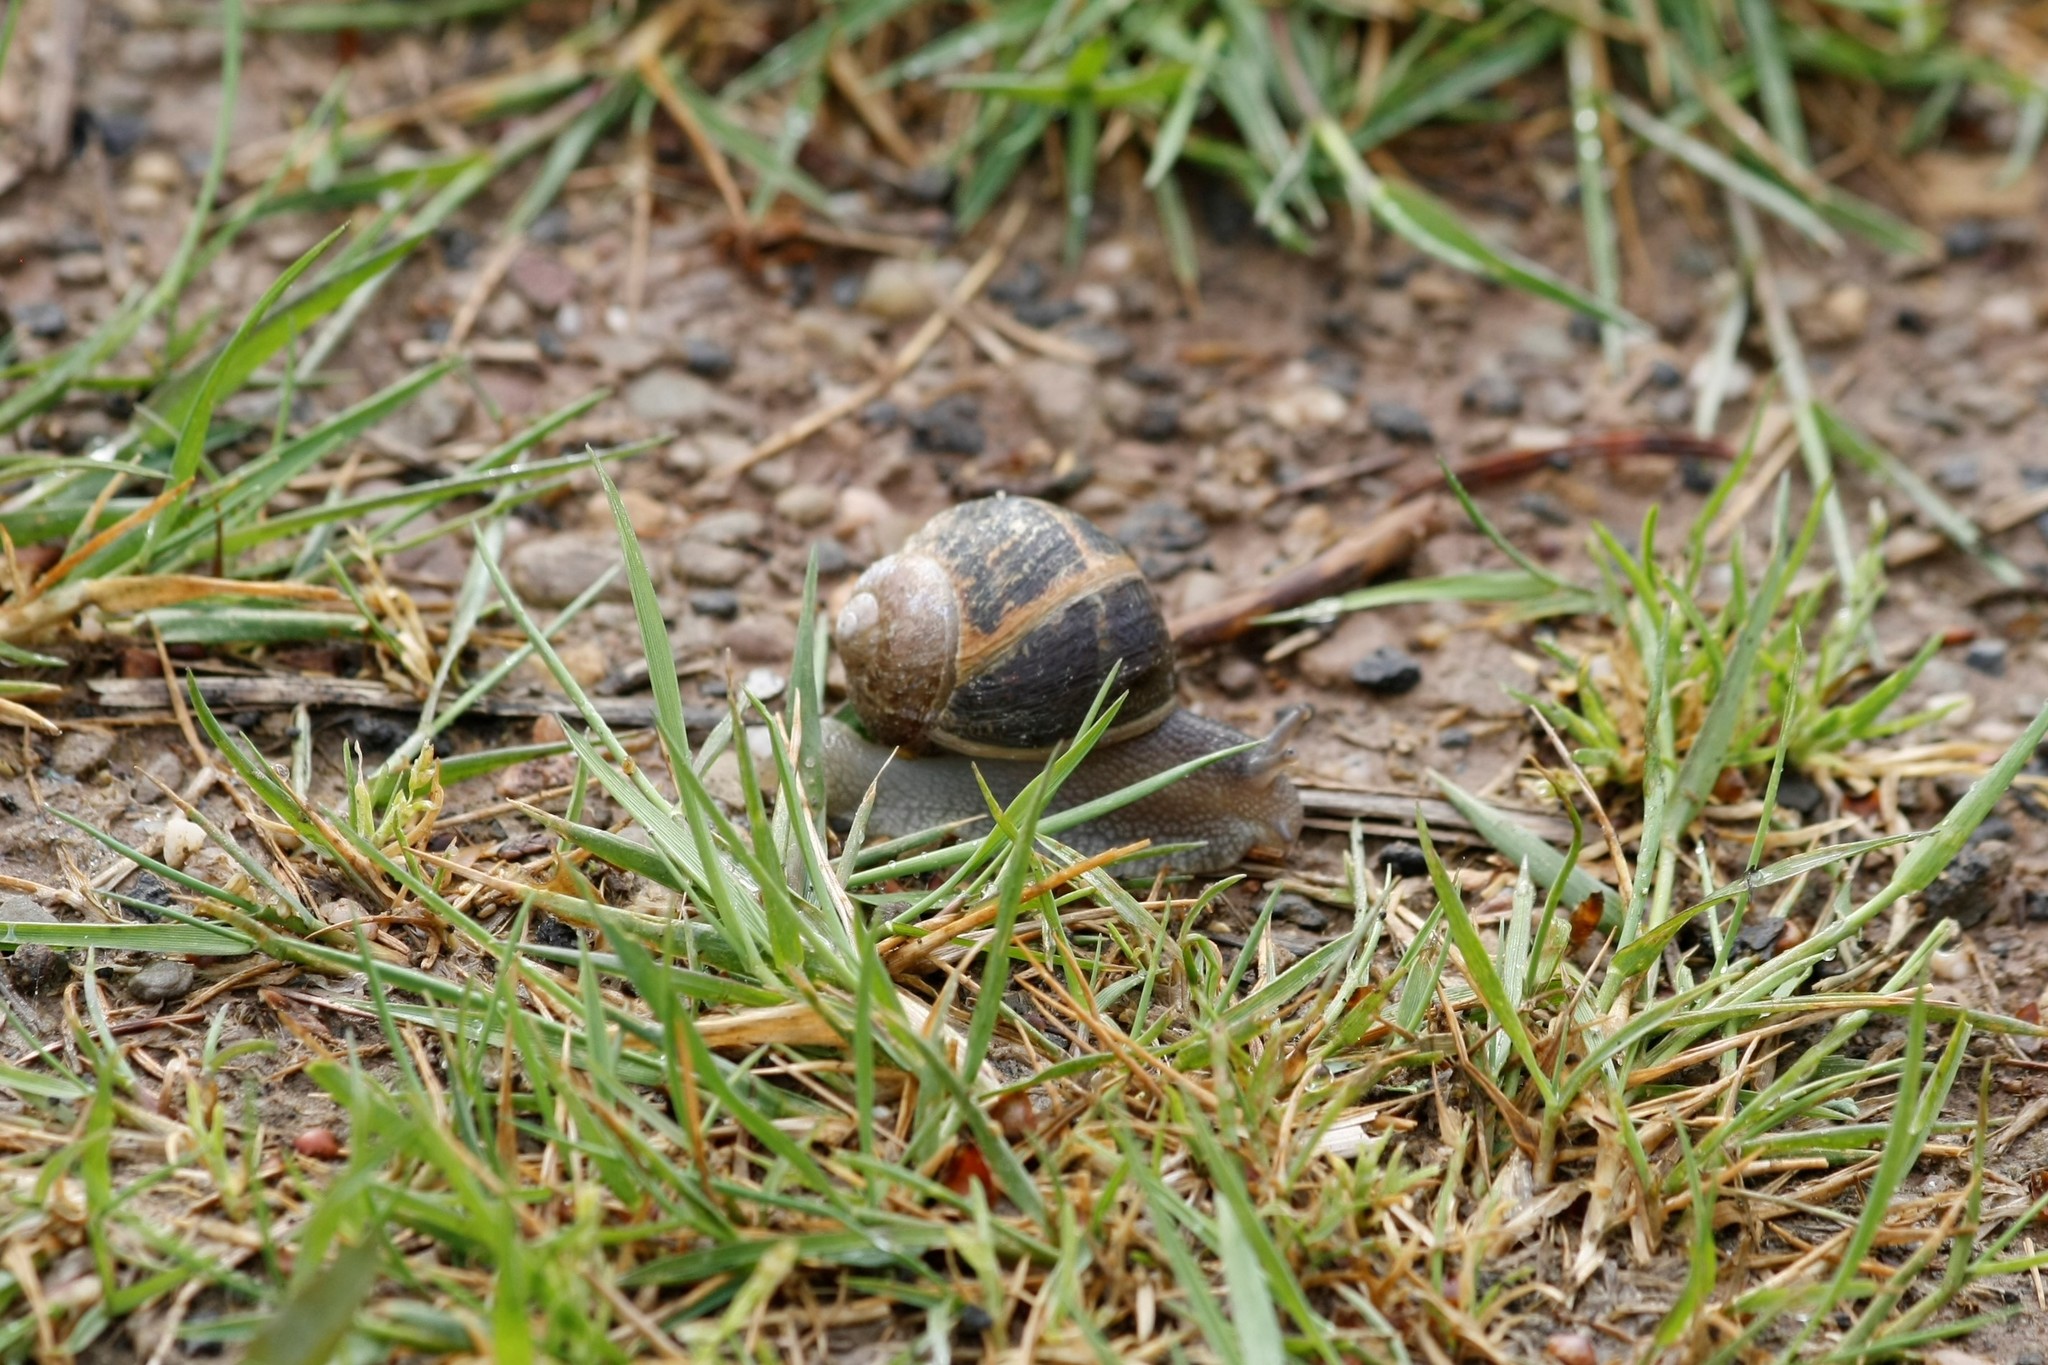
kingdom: Animalia
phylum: Mollusca
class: Gastropoda
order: Stylommatophora
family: Helicidae
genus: Cornu
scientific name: Cornu aspersum
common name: Brown garden snail
